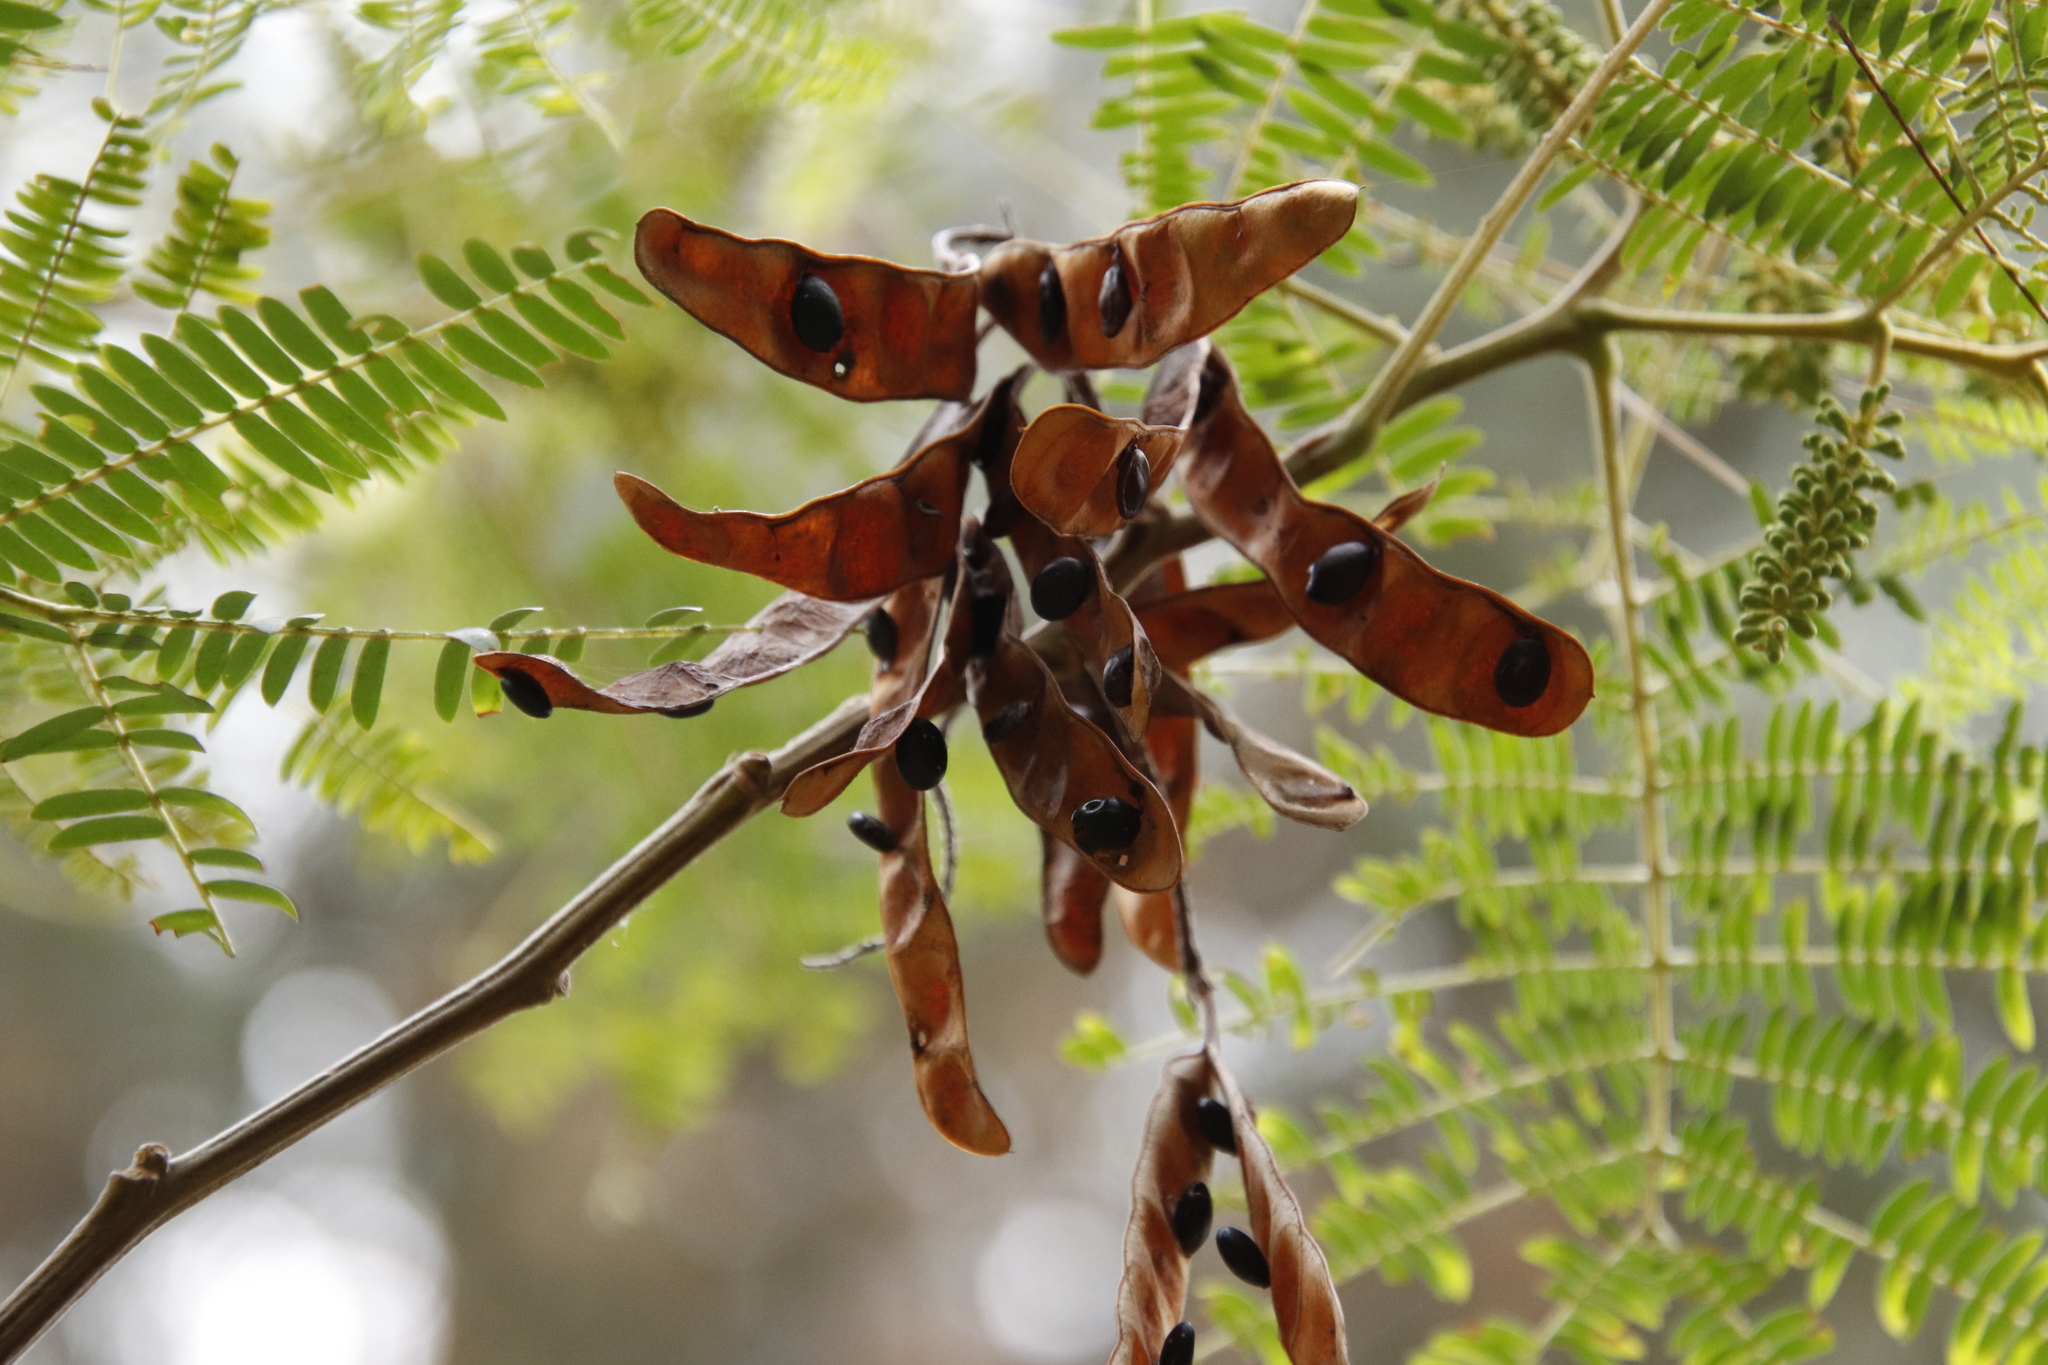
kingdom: Plantae
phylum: Tracheophyta
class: Magnoliopsida
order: Fabales
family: Fabaceae
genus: Paraserianthes
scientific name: Paraserianthes lophantha
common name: Plume albizia
